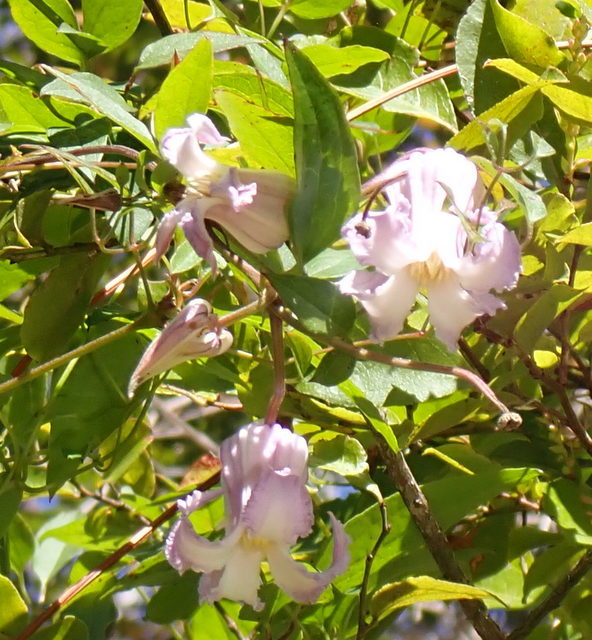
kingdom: Plantae
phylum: Tracheophyta
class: Magnoliopsida
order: Ranunculales
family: Ranunculaceae
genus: Clematis
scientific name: Clematis crispa
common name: Curly clematis
